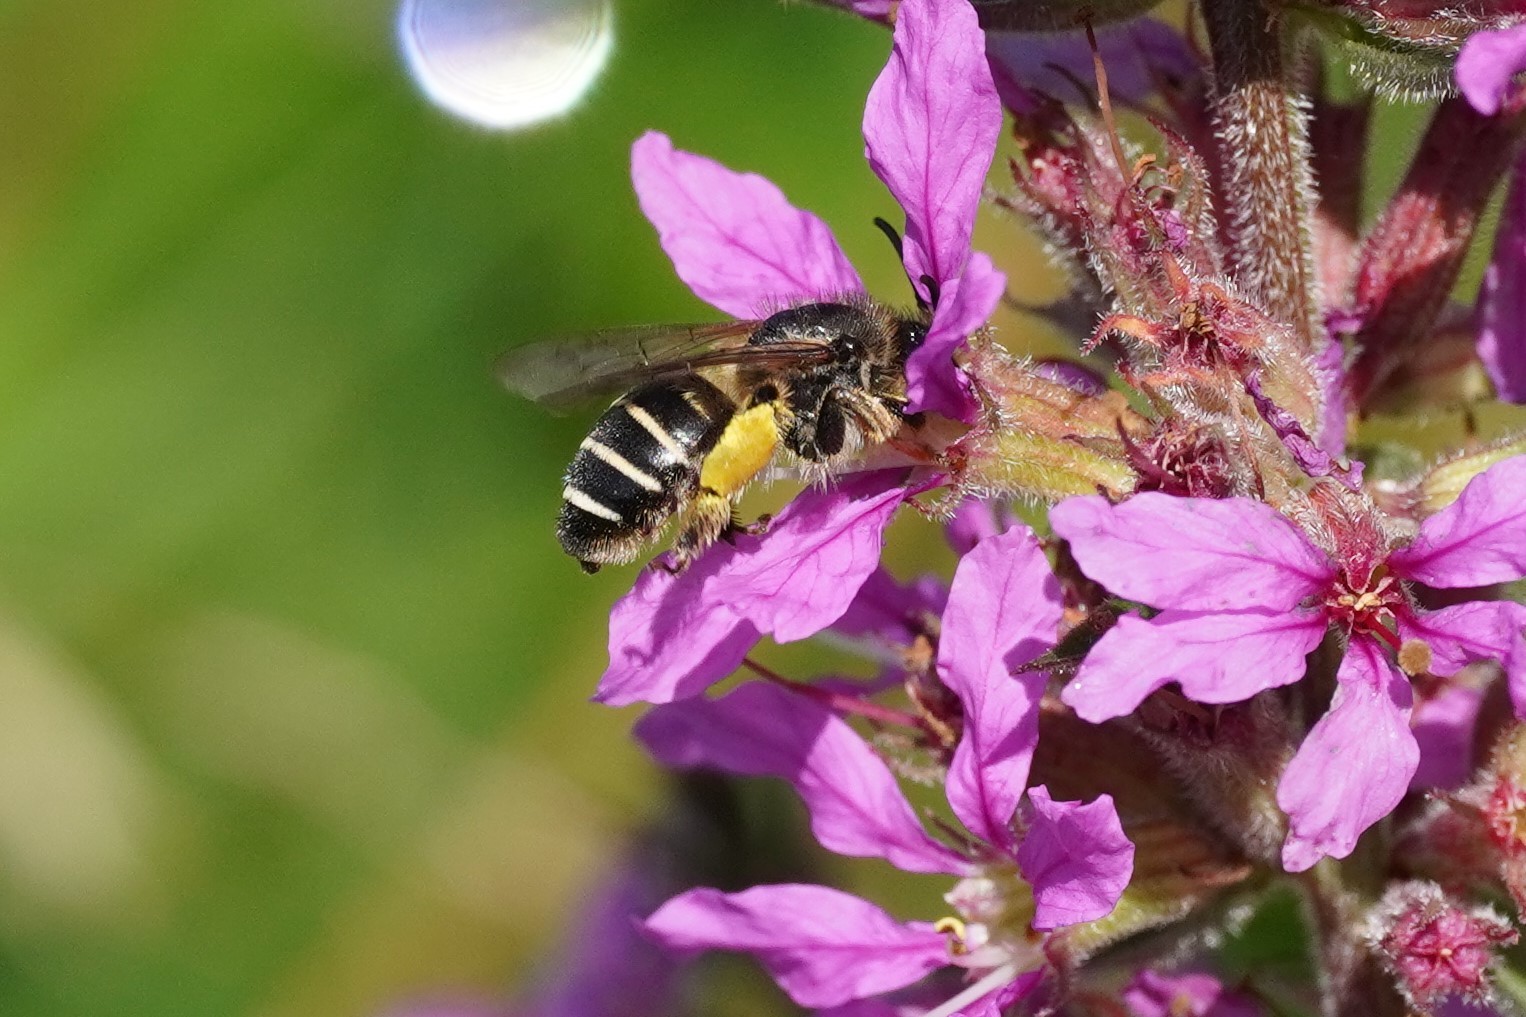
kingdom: Animalia
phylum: Arthropoda
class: Insecta
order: Hymenoptera
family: Melittidae
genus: Melitta
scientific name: Melitta nigricans
